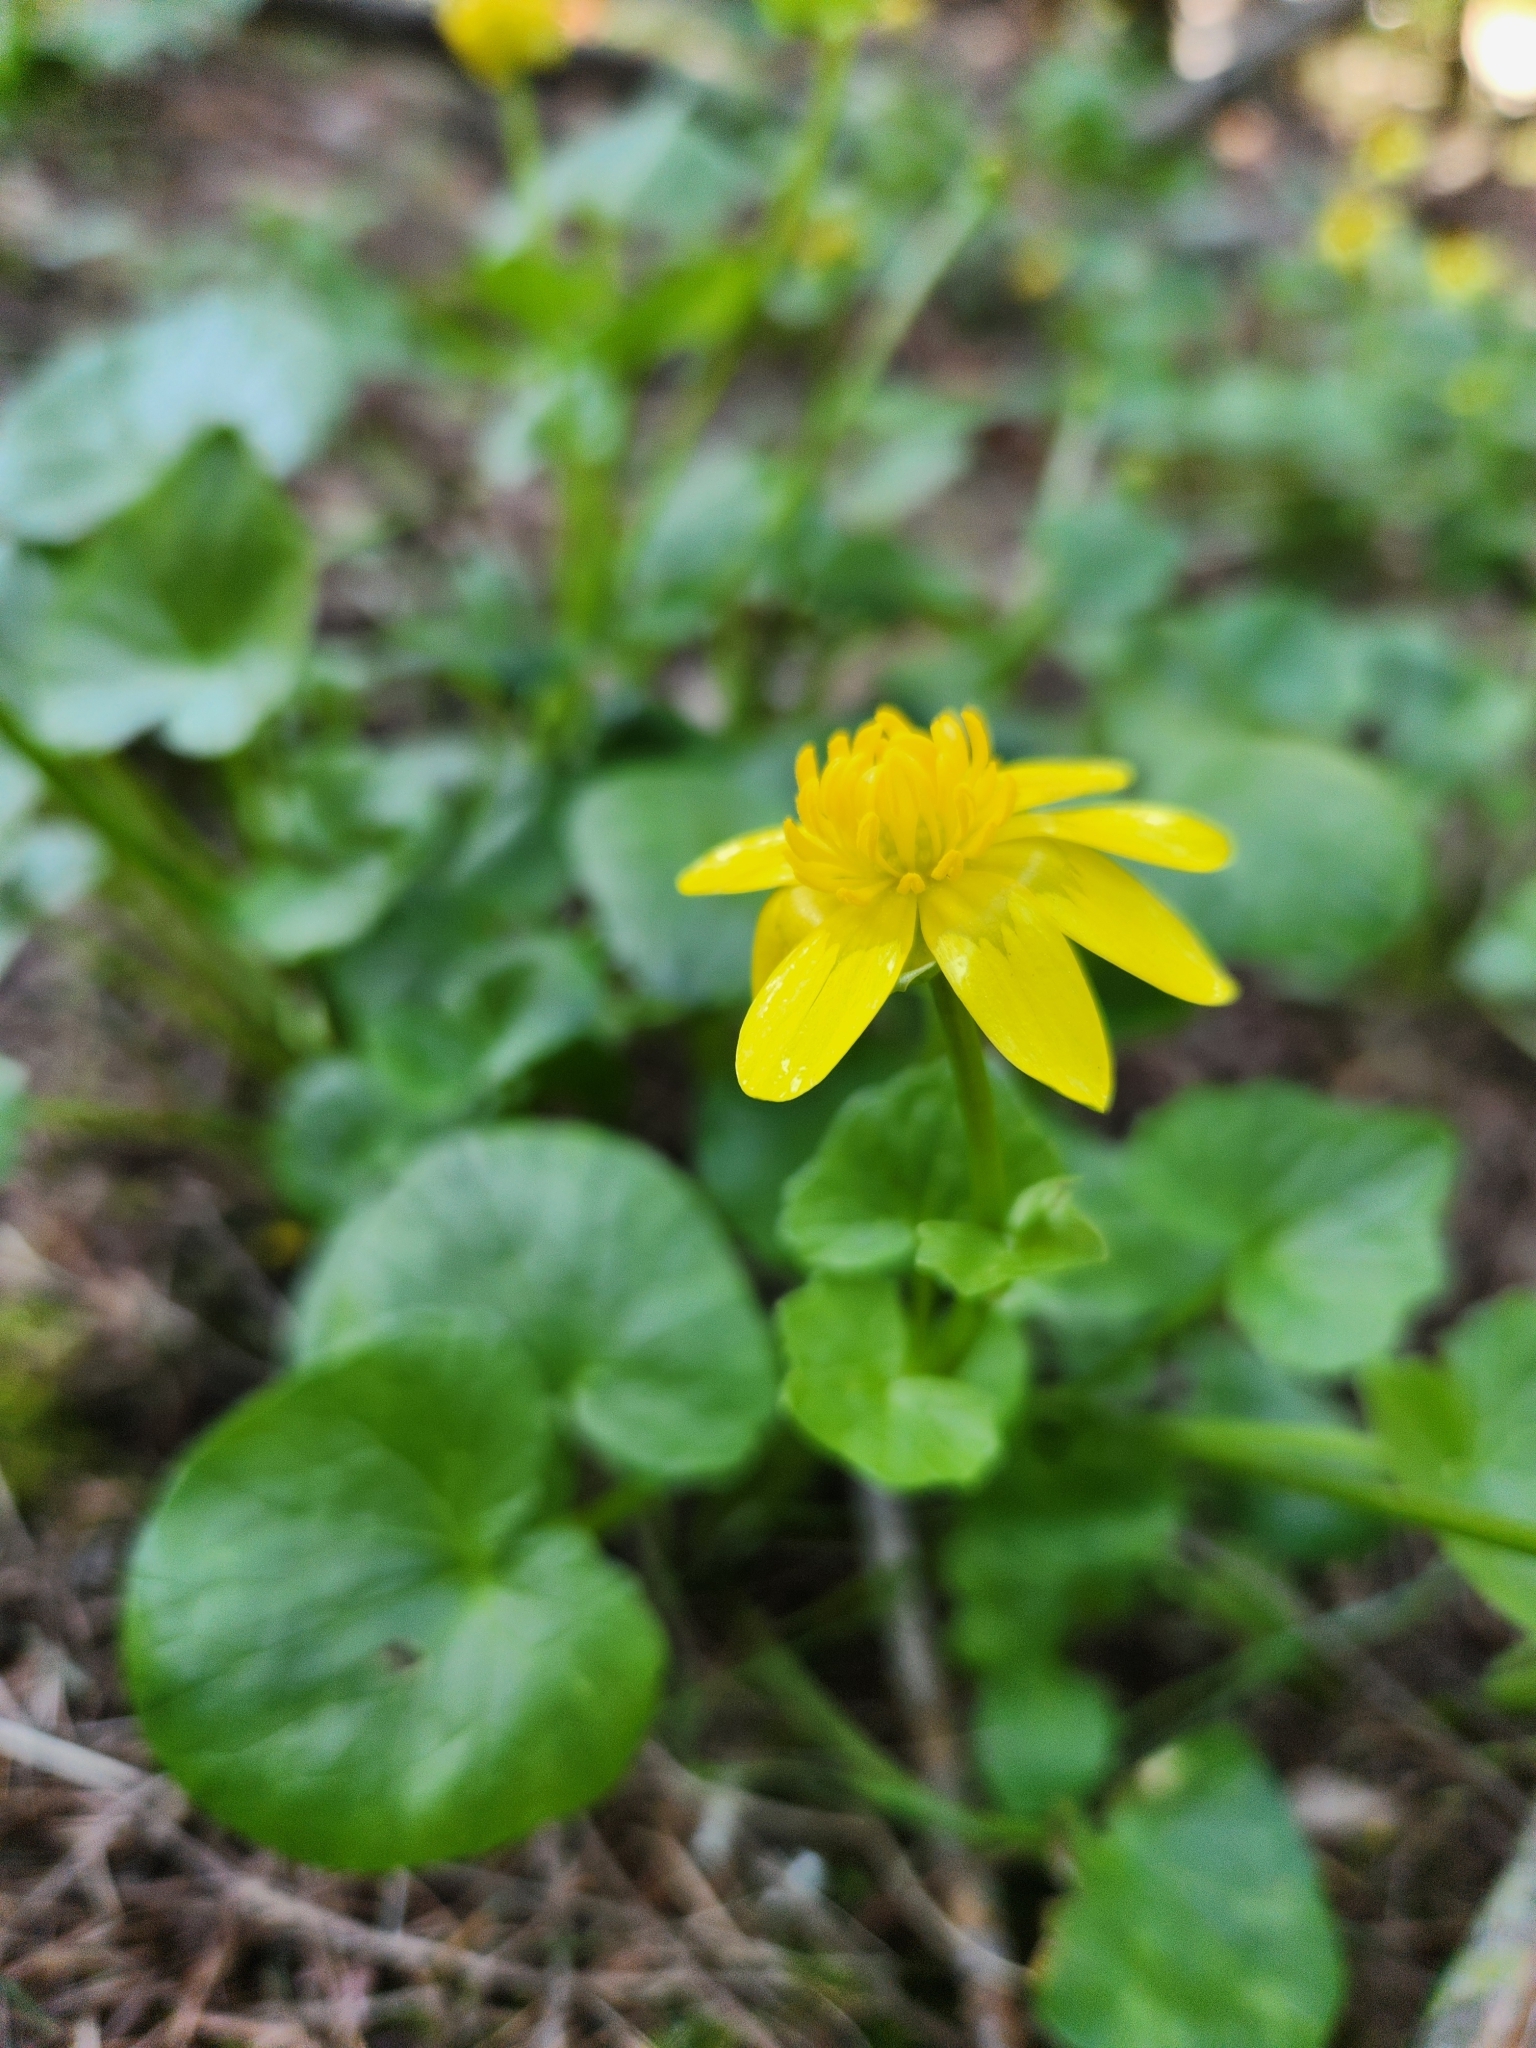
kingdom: Plantae
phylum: Tracheophyta
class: Magnoliopsida
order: Ranunculales
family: Ranunculaceae
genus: Ficaria
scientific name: Ficaria verna
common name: Lesser celandine
